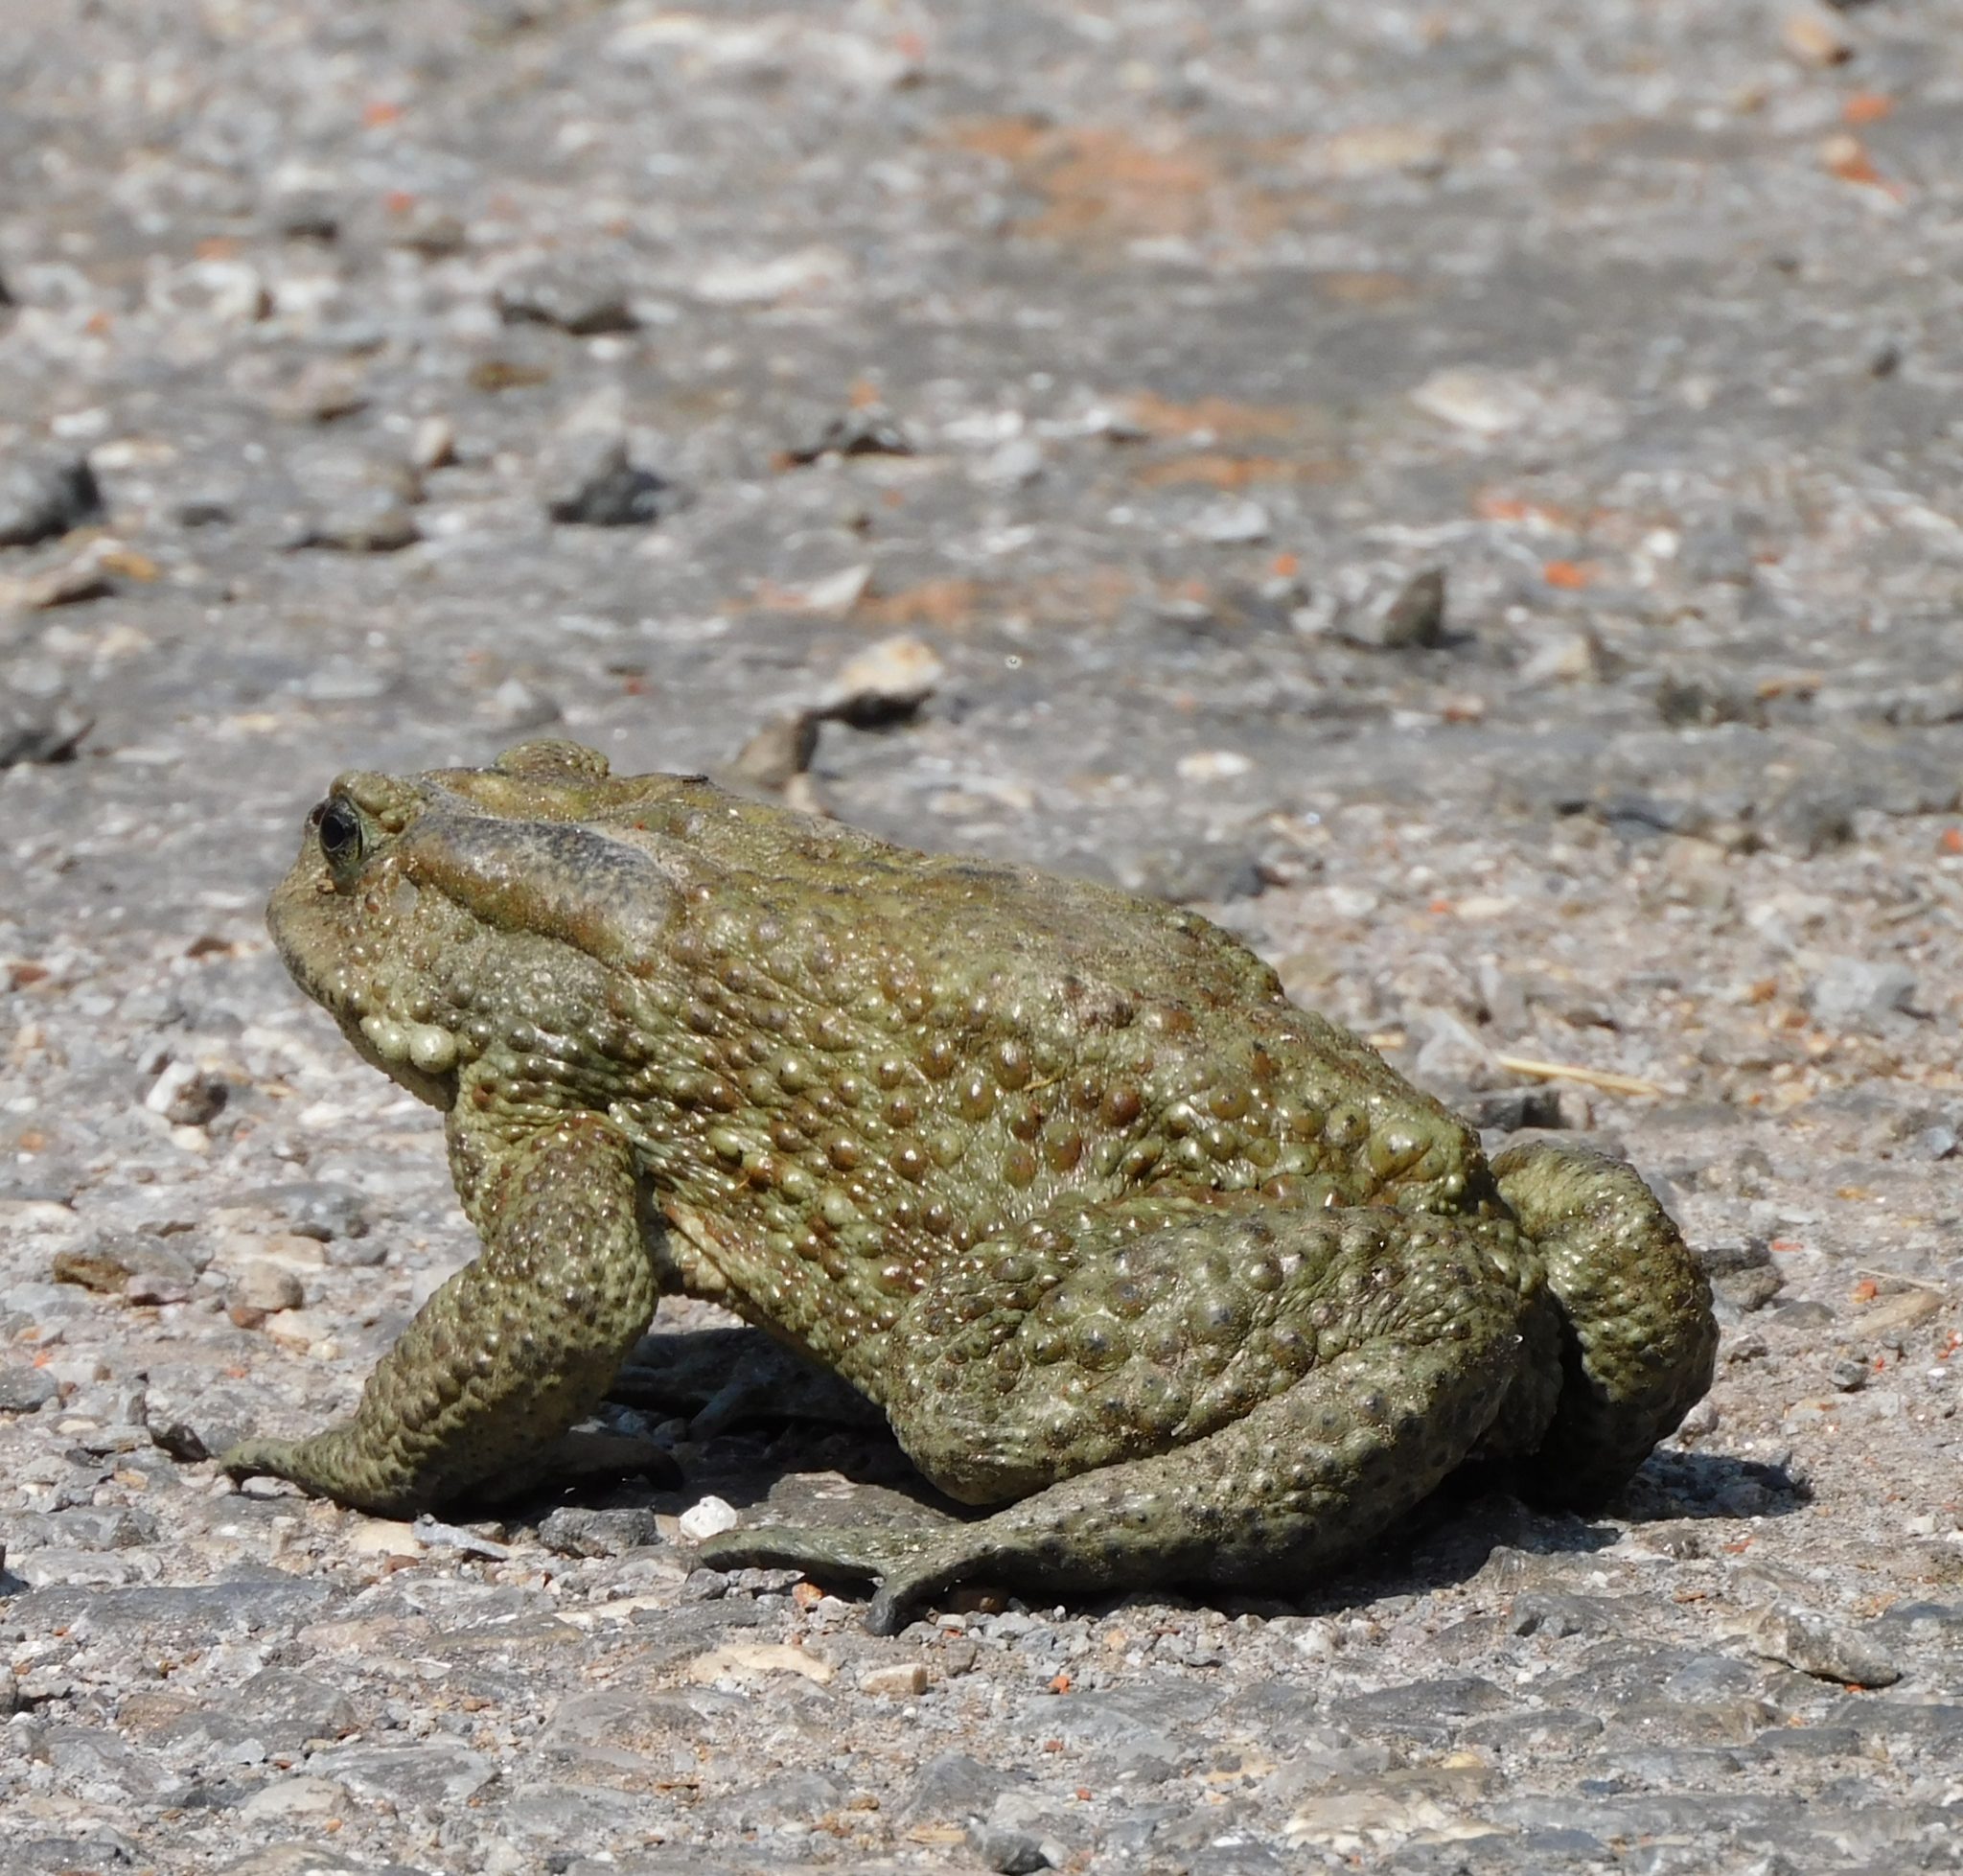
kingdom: Animalia
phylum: Chordata
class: Amphibia
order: Anura
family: Bufonidae
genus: Duttaphrynus
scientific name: Duttaphrynus himalayanus
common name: Günther's high altitude toad
